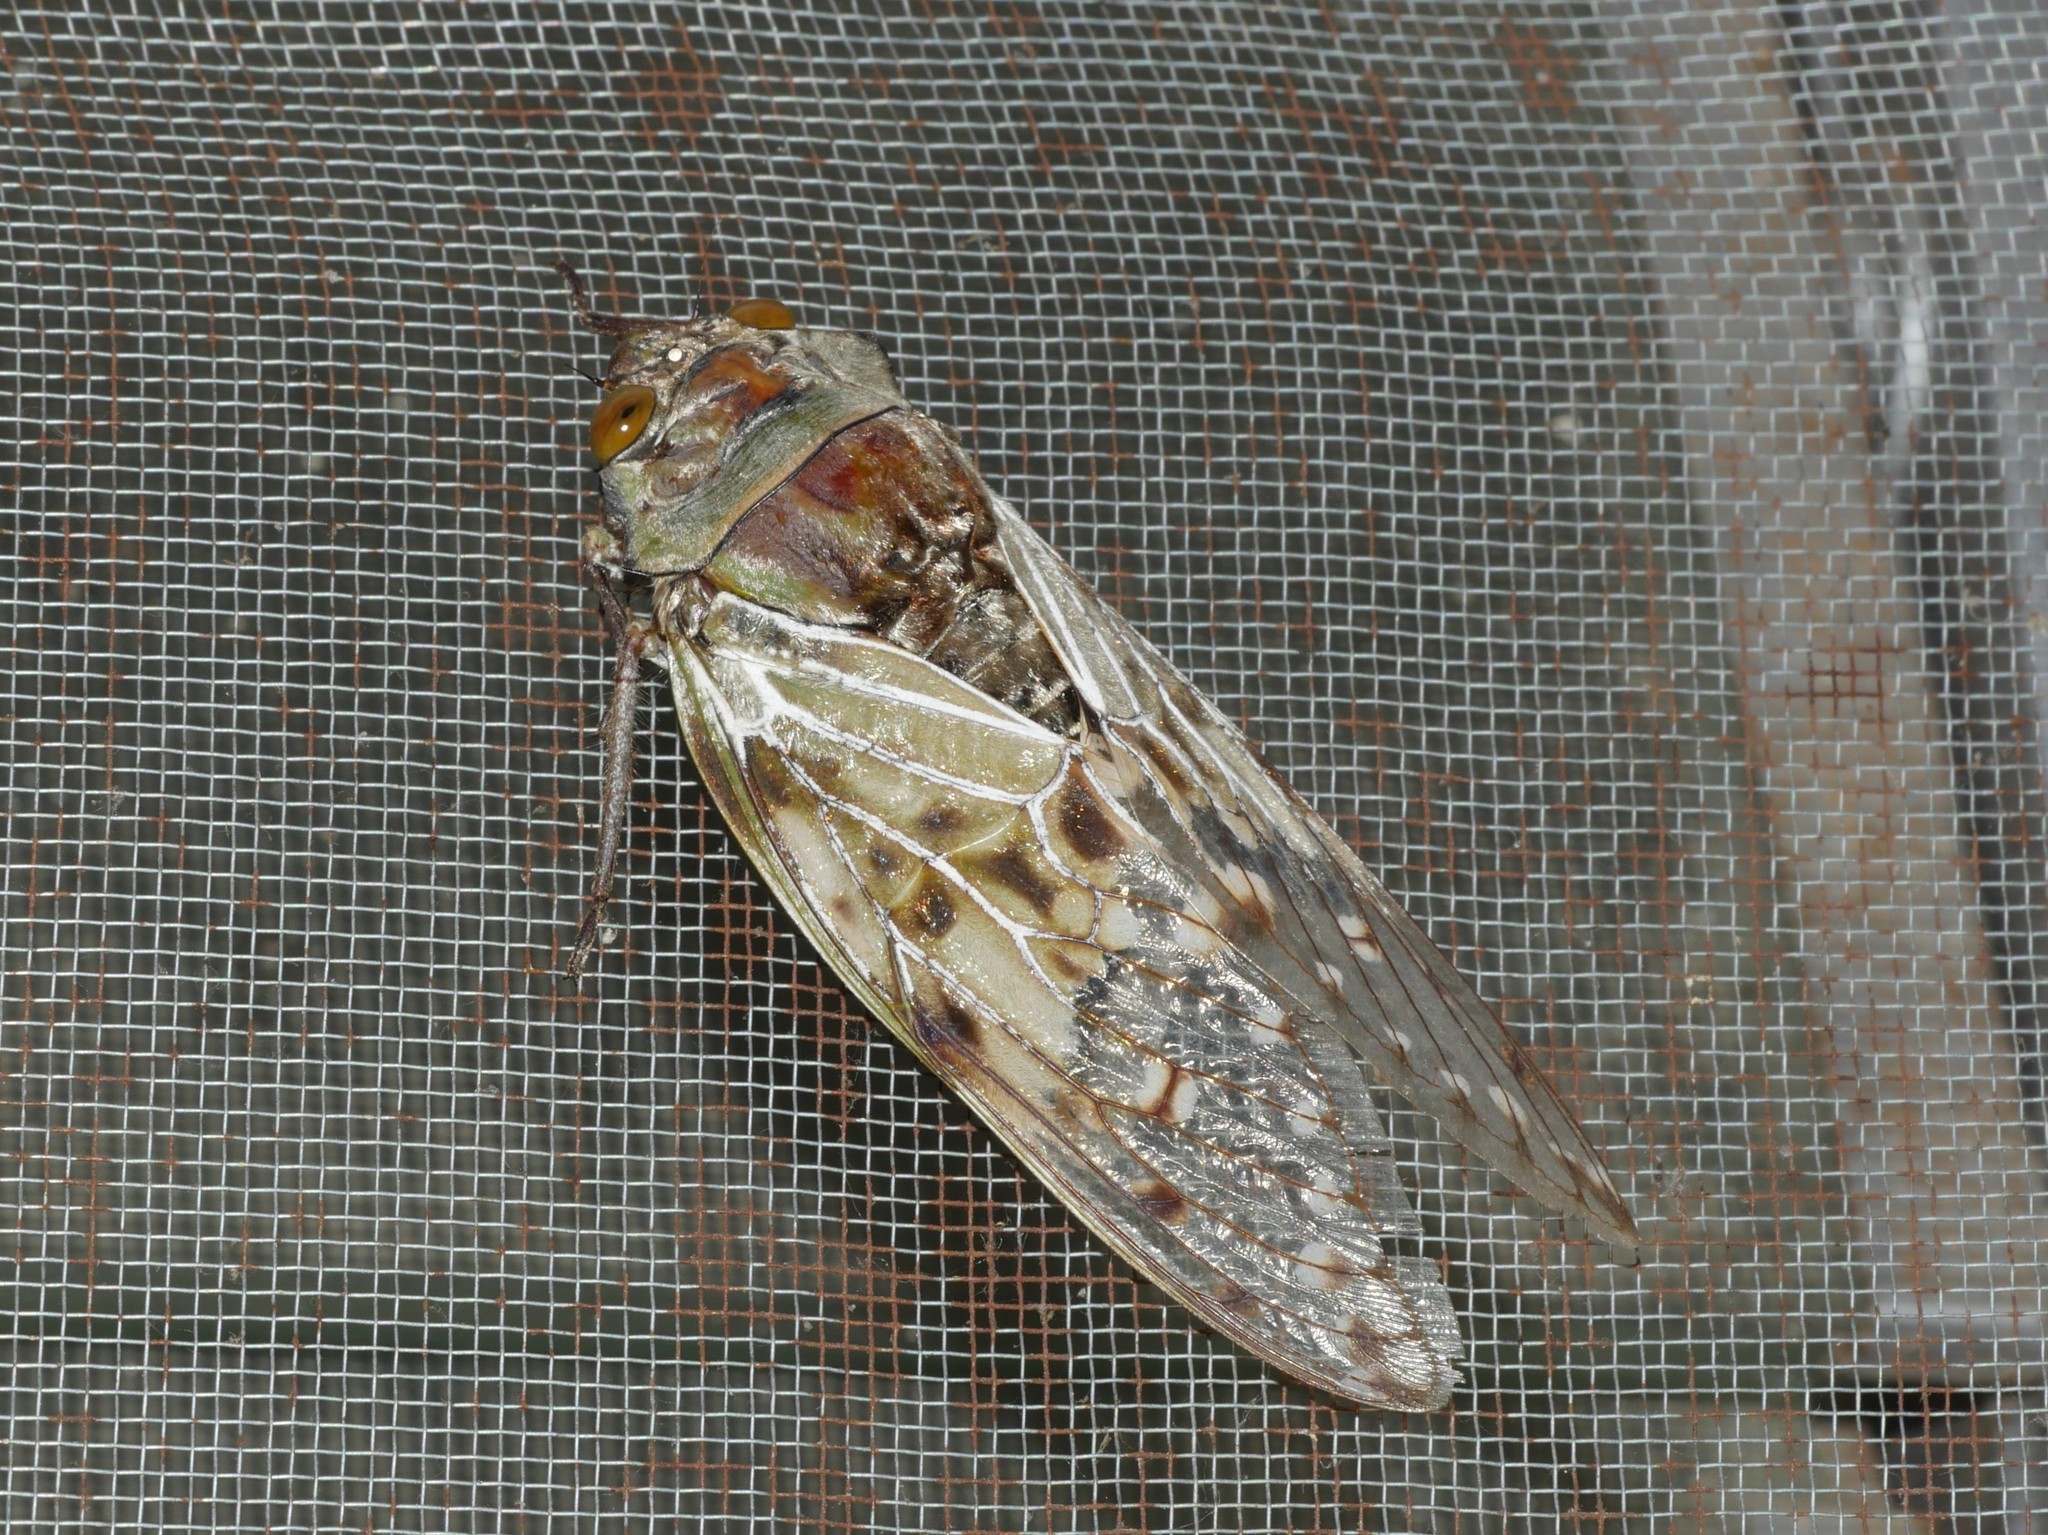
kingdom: Animalia
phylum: Arthropoda
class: Insecta
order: Hemiptera
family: Cicadidae
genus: Ugada
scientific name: Ugada limbata
